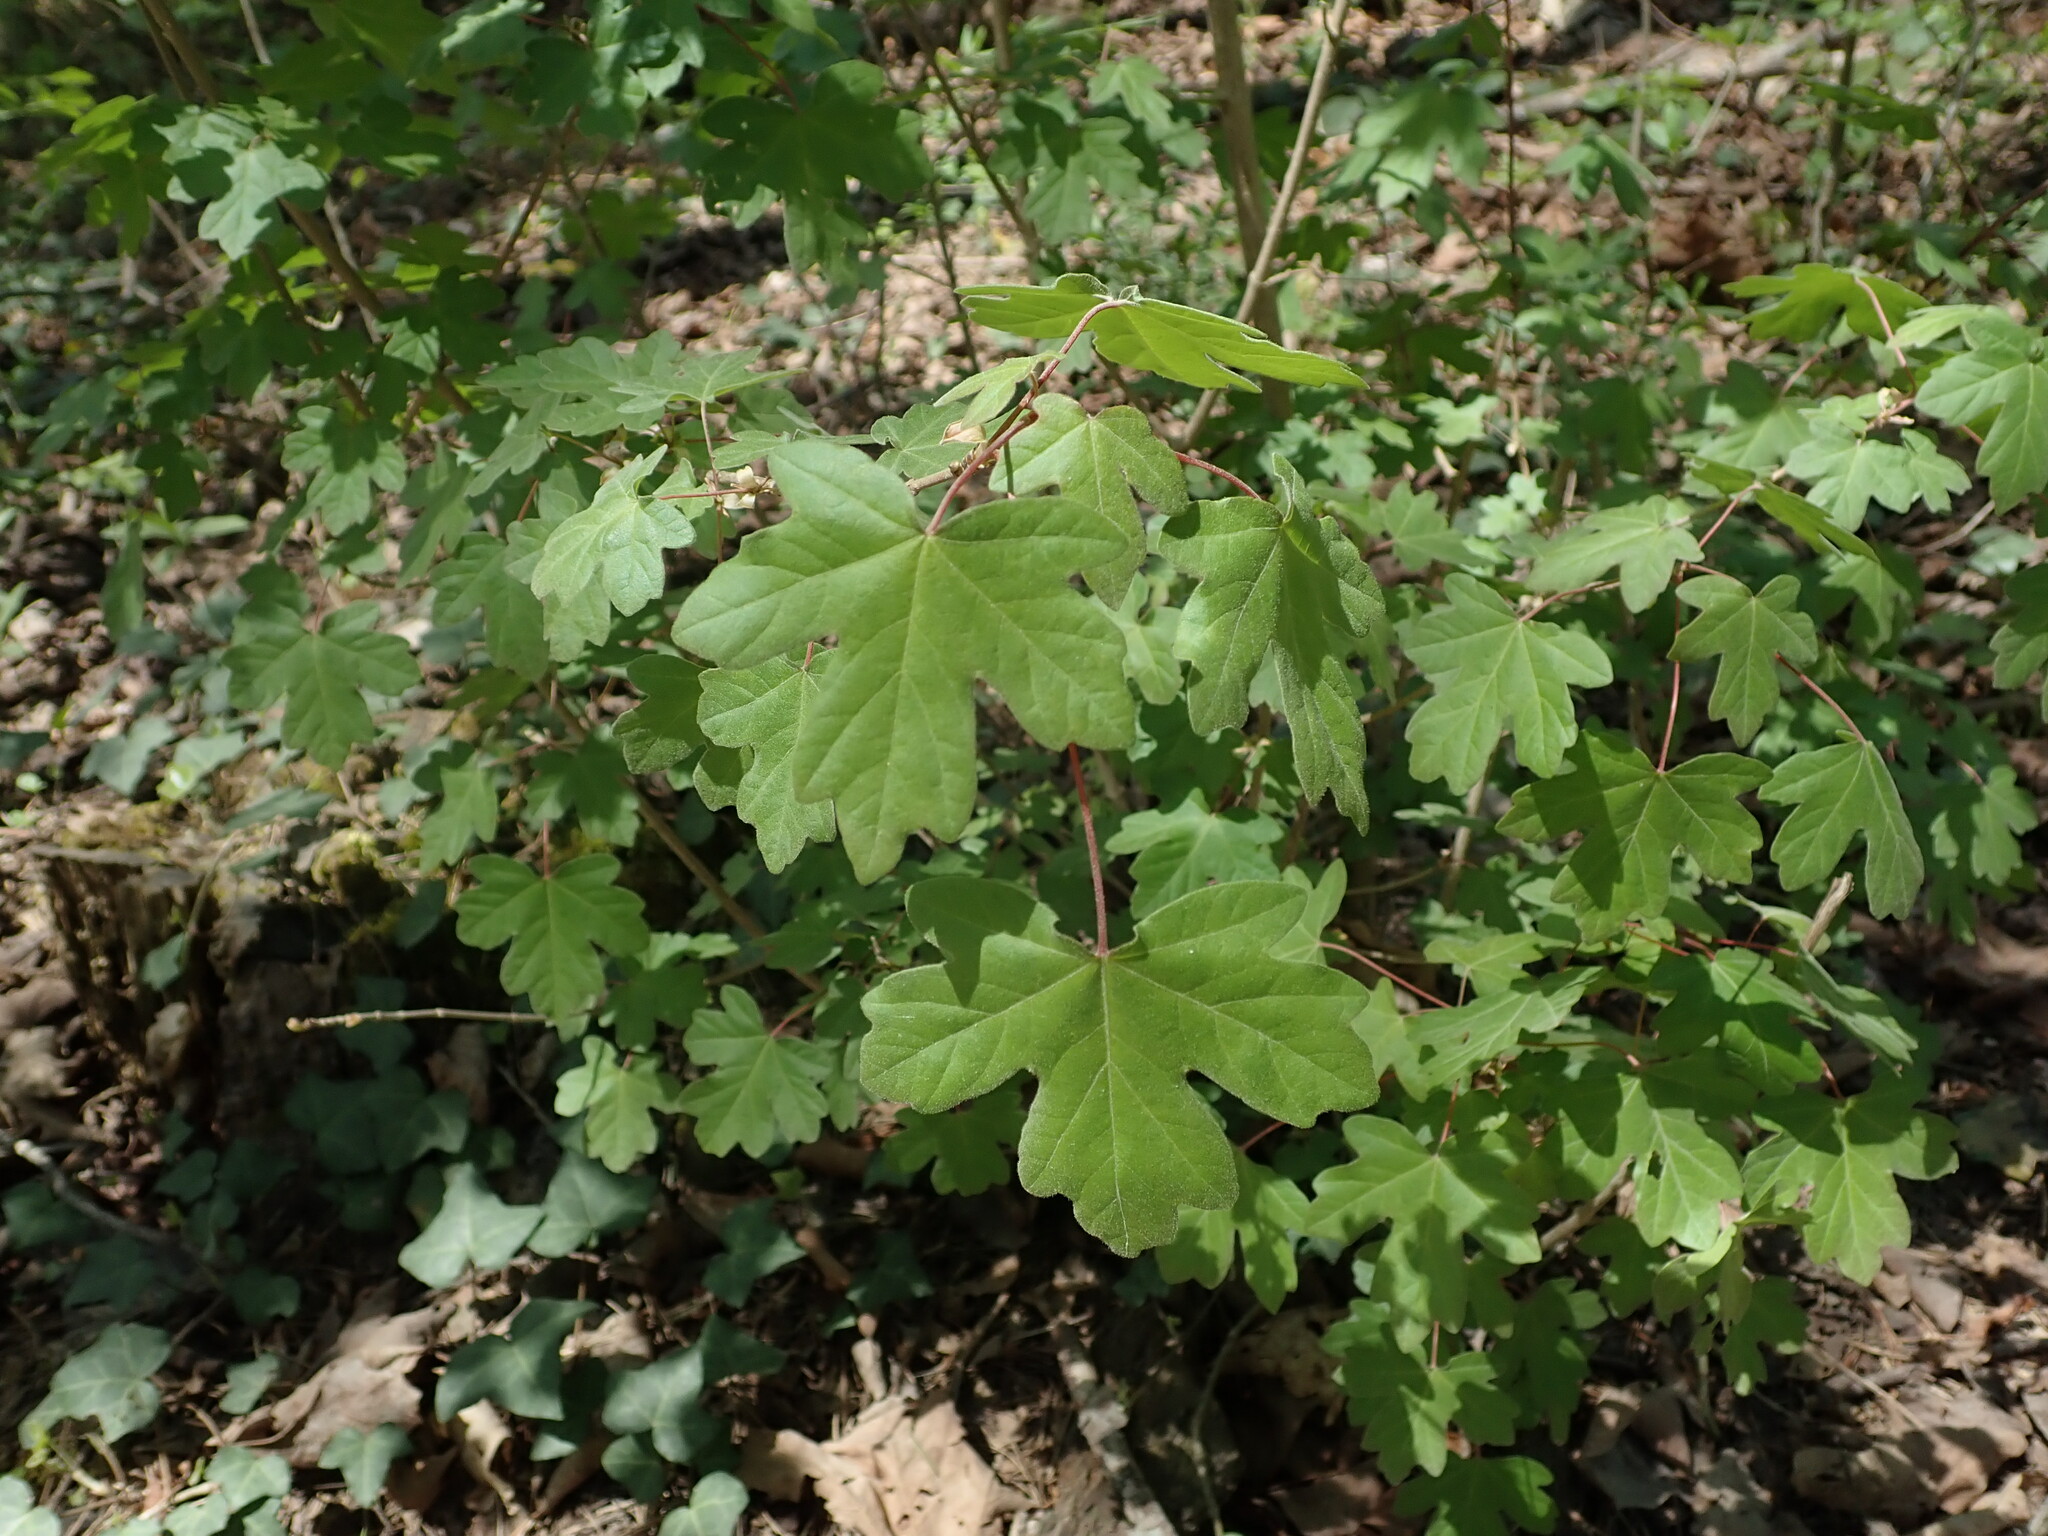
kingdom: Plantae
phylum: Tracheophyta
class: Magnoliopsida
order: Sapindales
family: Sapindaceae
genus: Acer
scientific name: Acer campestre
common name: Field maple
